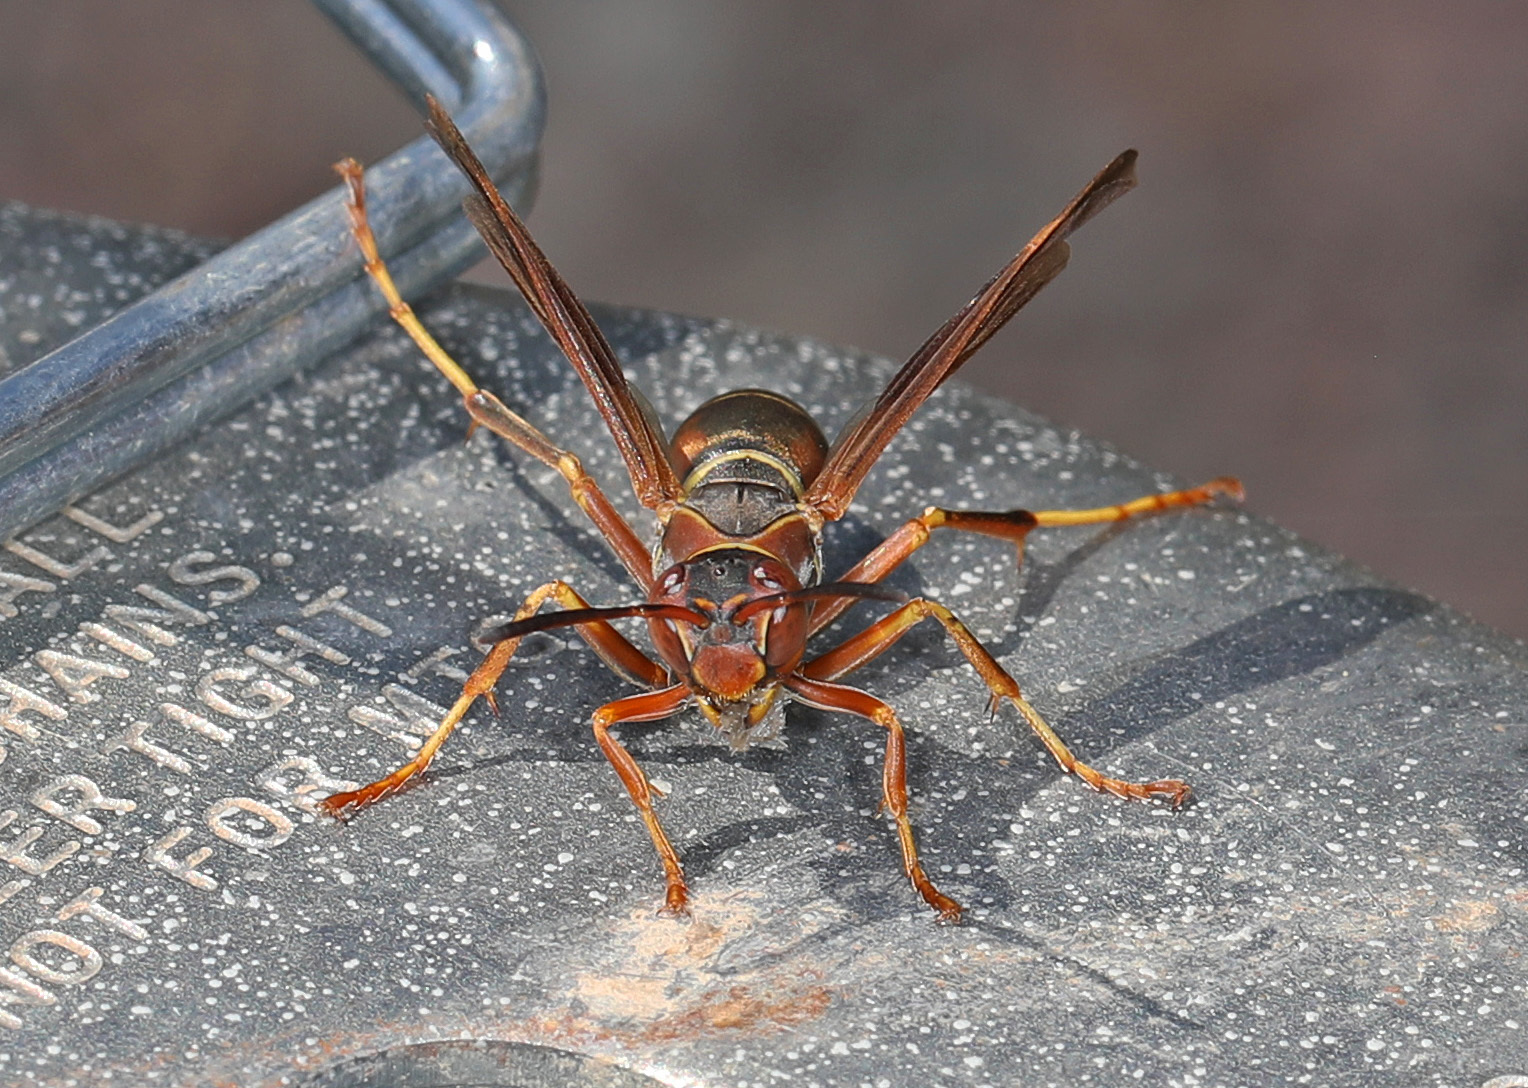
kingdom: Animalia
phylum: Arthropoda
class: Insecta
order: Hymenoptera
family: Eumenidae
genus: Polistes
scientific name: Polistes fuscatus
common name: Dark paper wasp
